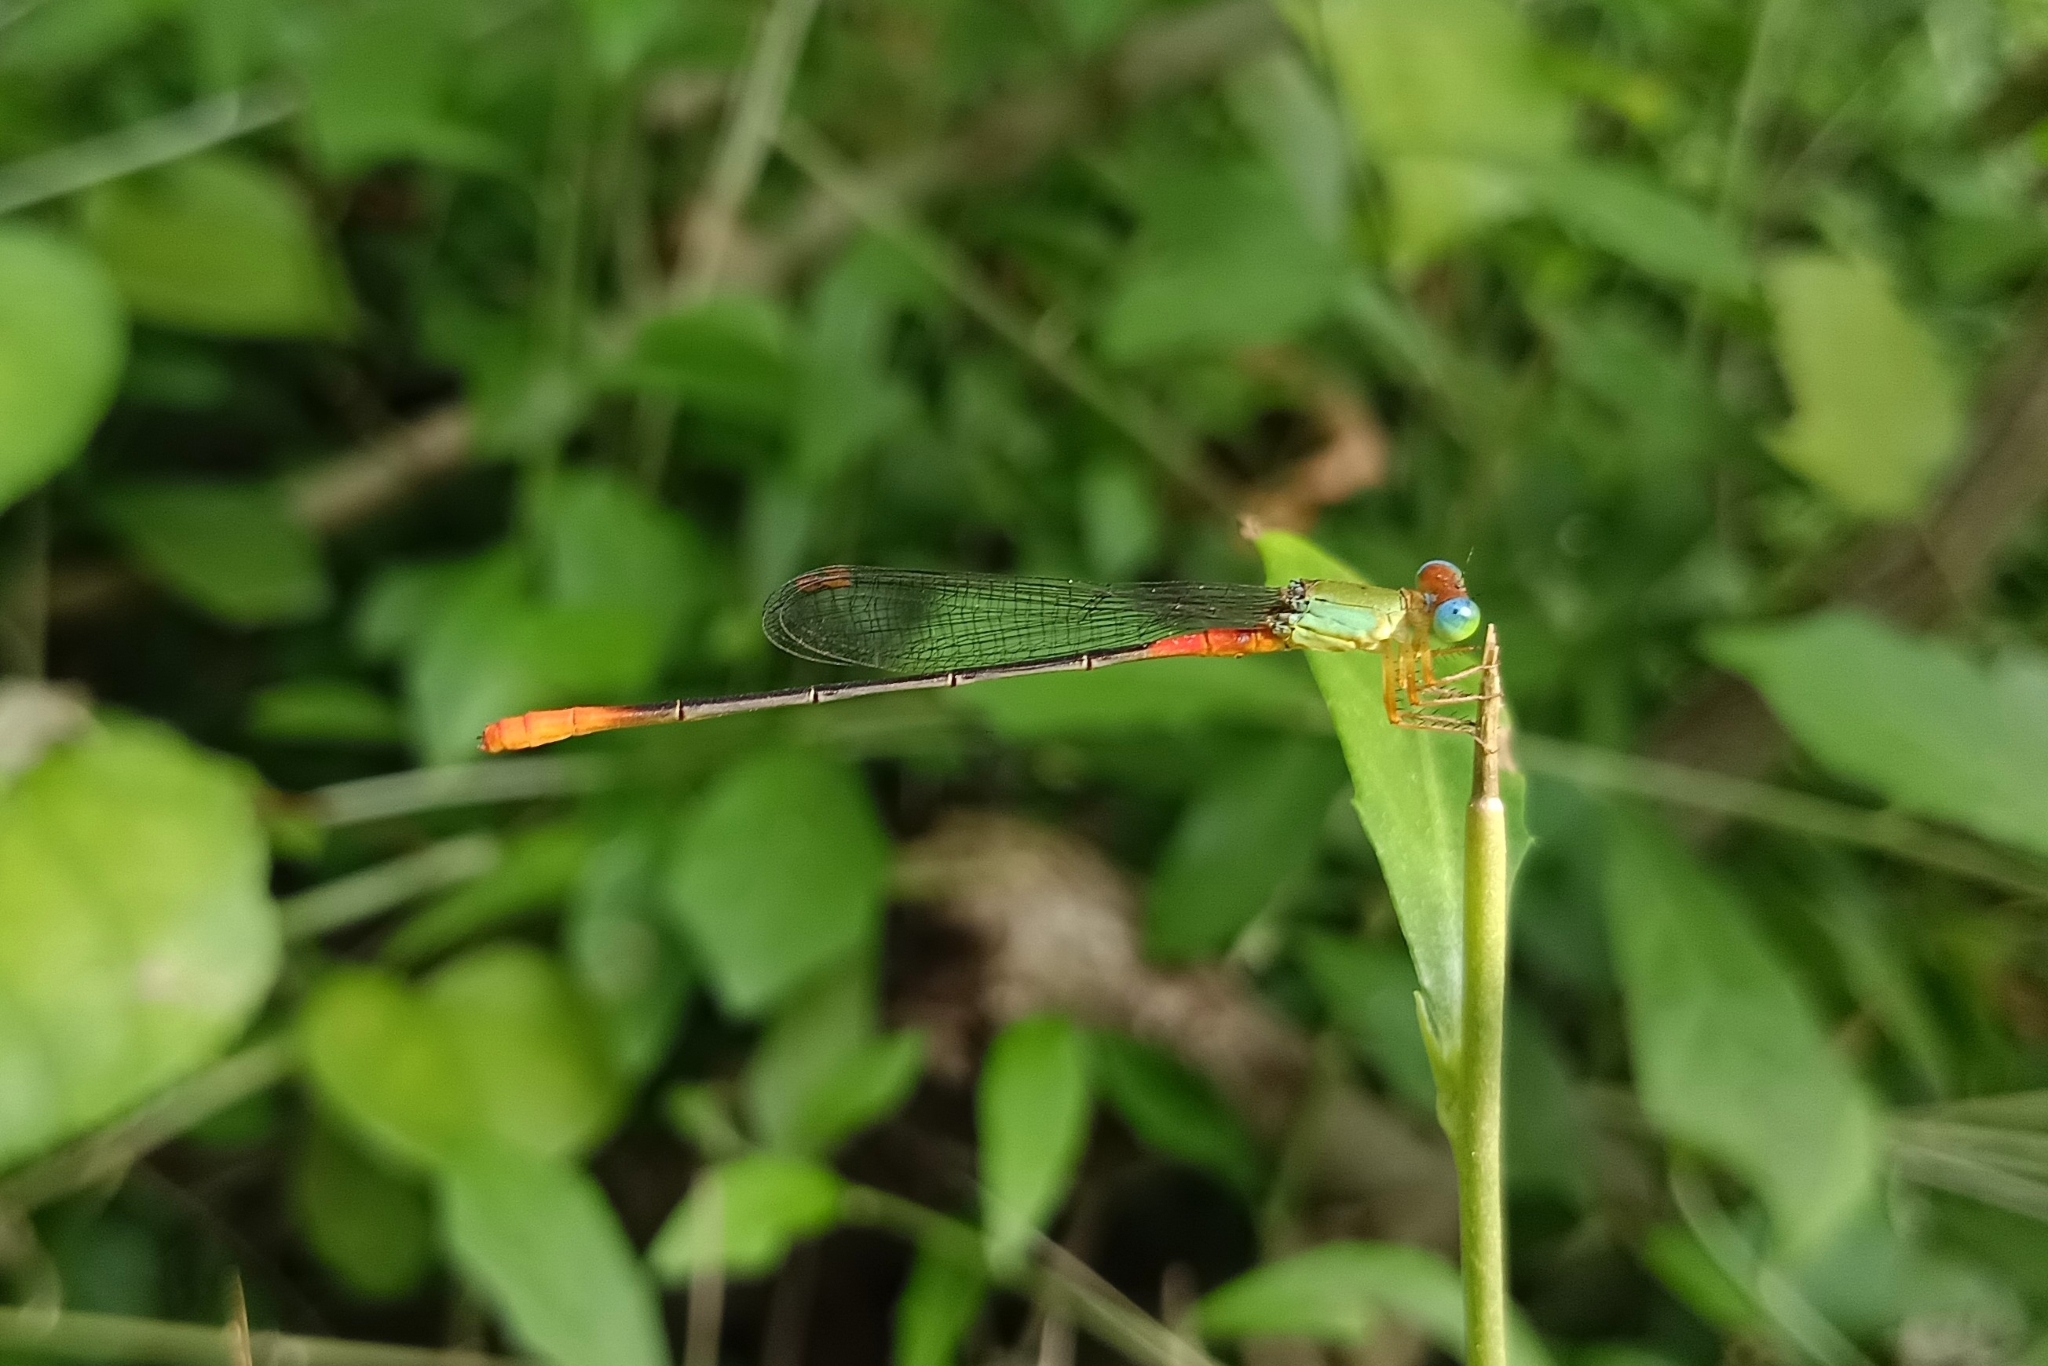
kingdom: Animalia
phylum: Arthropoda
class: Insecta
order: Odonata
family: Coenagrionidae
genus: Ceriagrion
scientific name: Ceriagrion cerinorubellum
